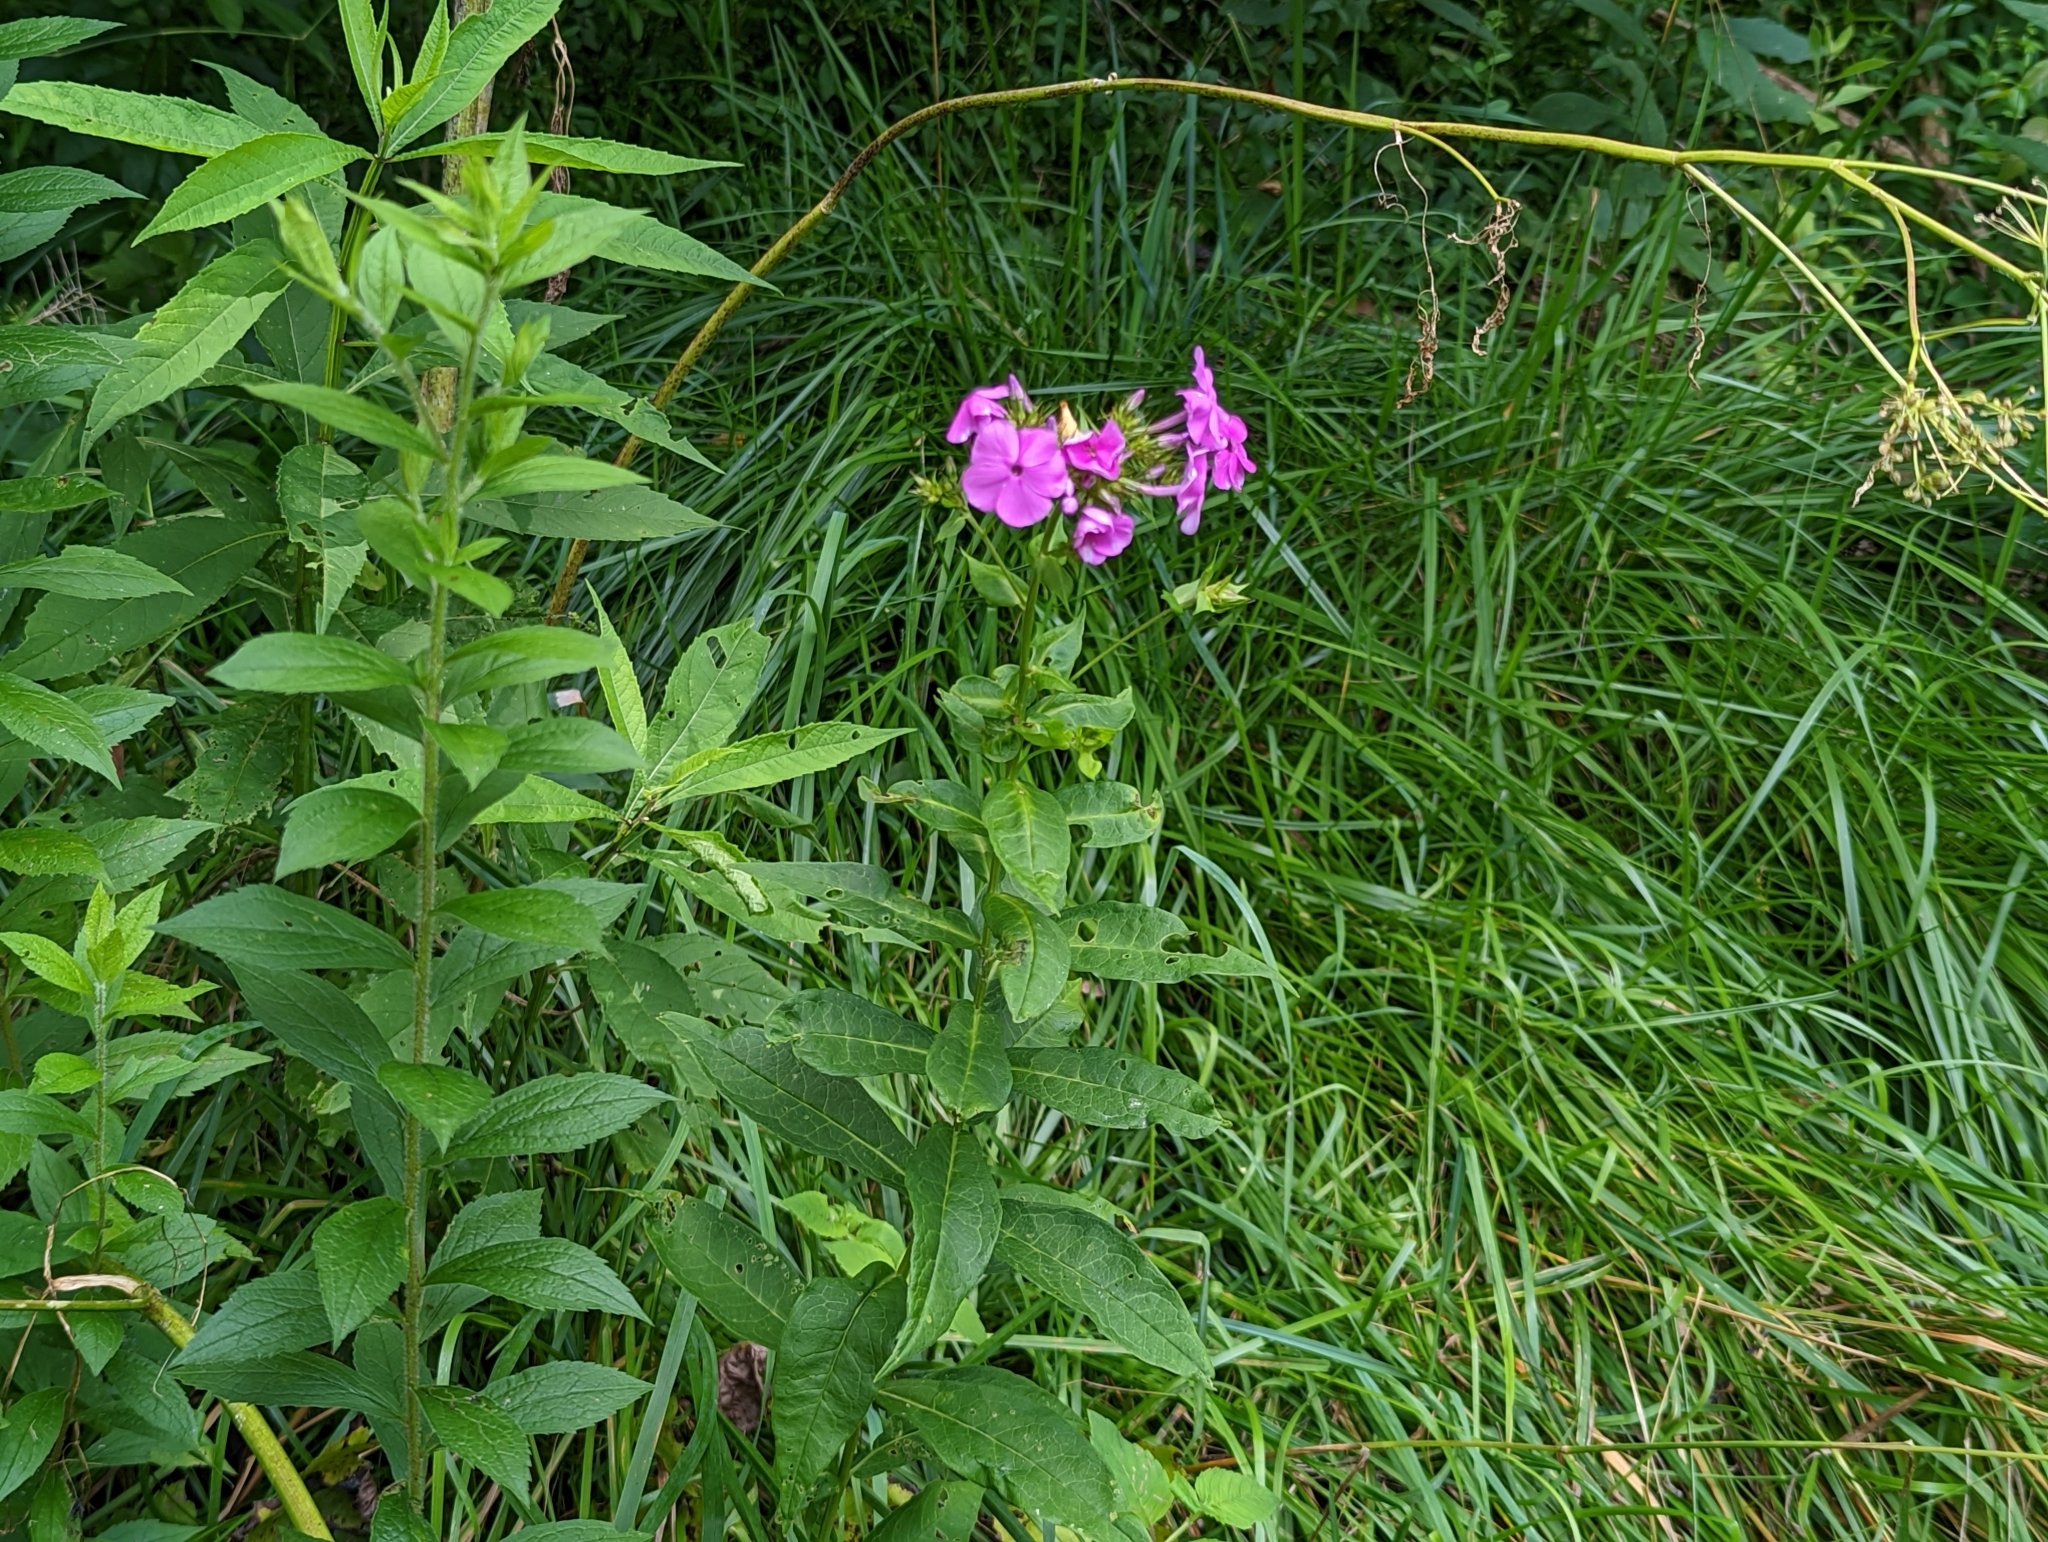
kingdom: Plantae
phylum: Tracheophyta
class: Magnoliopsida
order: Ericales
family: Polemoniaceae
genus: Phlox
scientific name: Phlox paniculata
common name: Fall phlox
